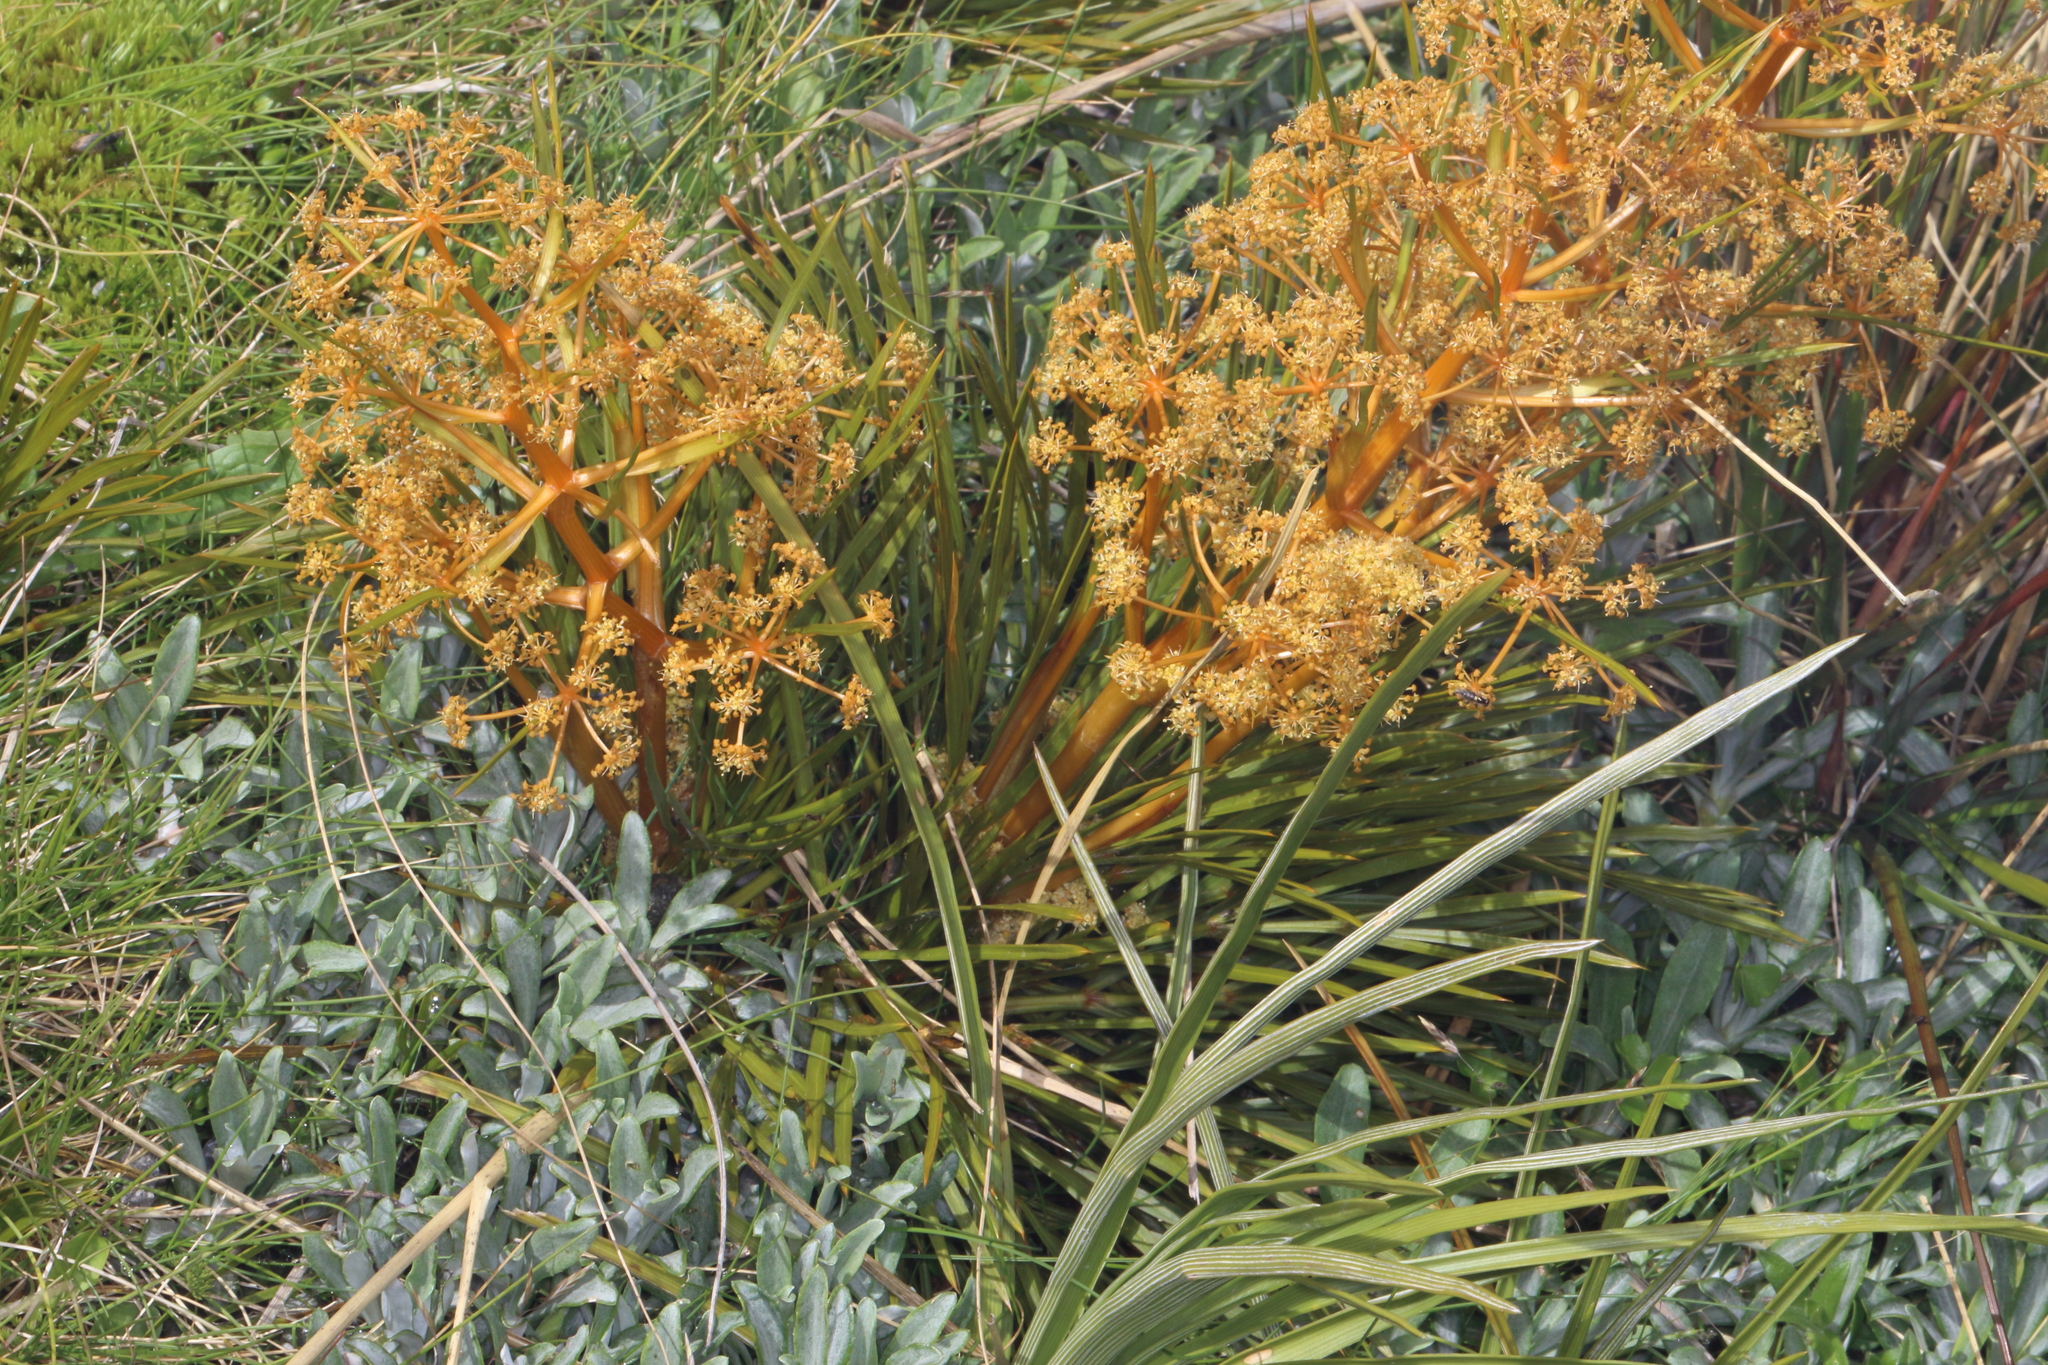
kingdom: Plantae
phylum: Tracheophyta
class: Magnoliopsida
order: Apiales
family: Apiaceae
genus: Aciphylla
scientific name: Aciphylla montana
